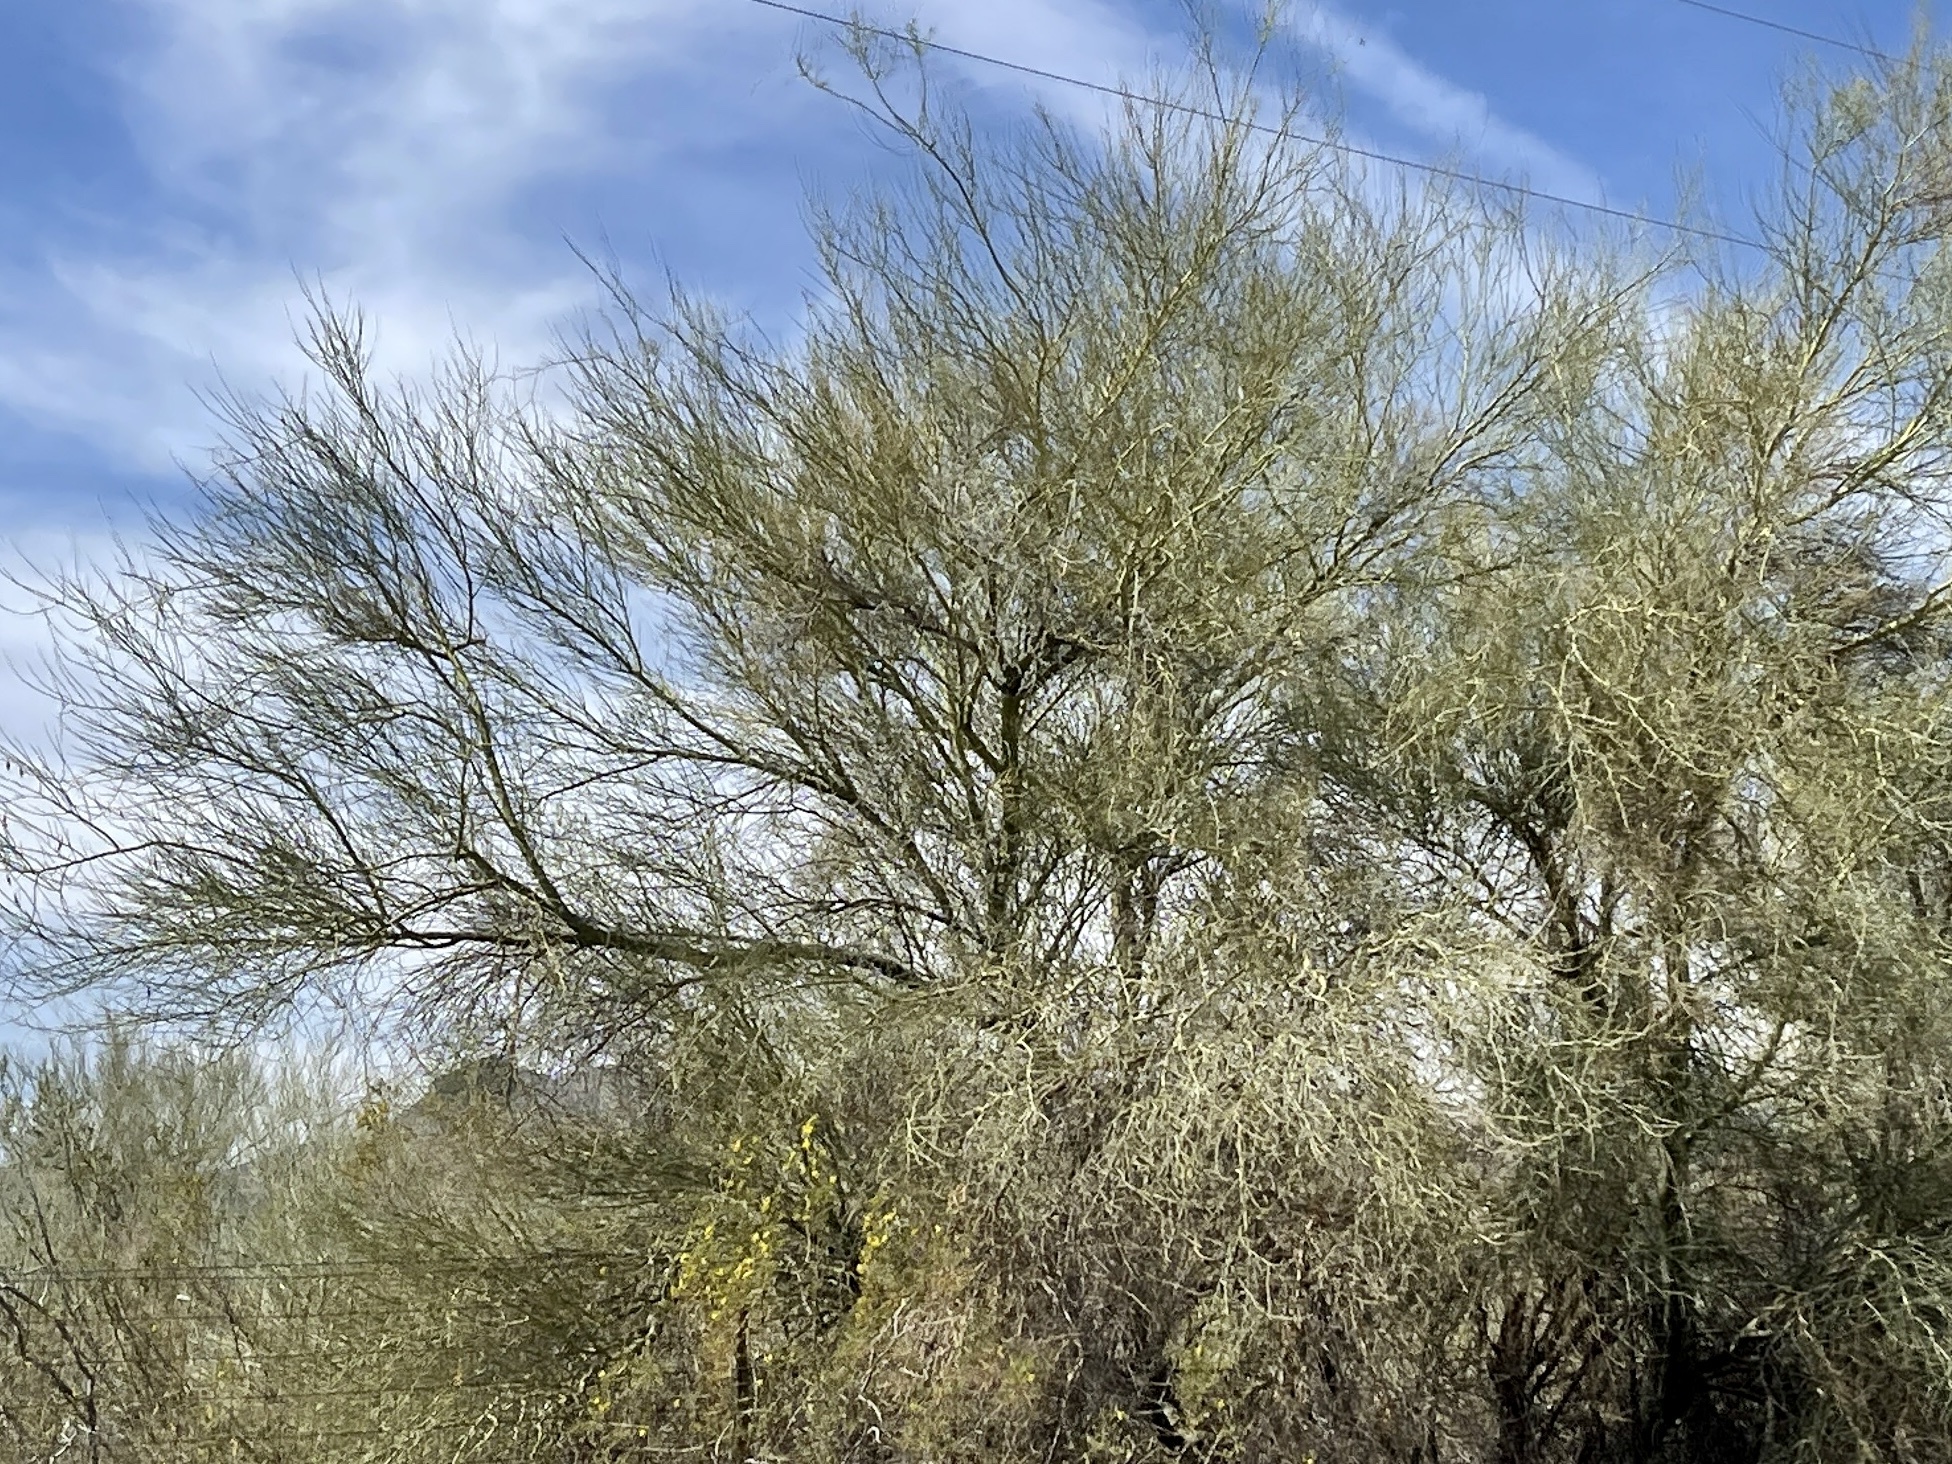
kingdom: Plantae
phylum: Tracheophyta
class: Magnoliopsida
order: Fabales
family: Fabaceae
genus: Parkinsonia
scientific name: Parkinsonia florida
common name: Blue paloverde
